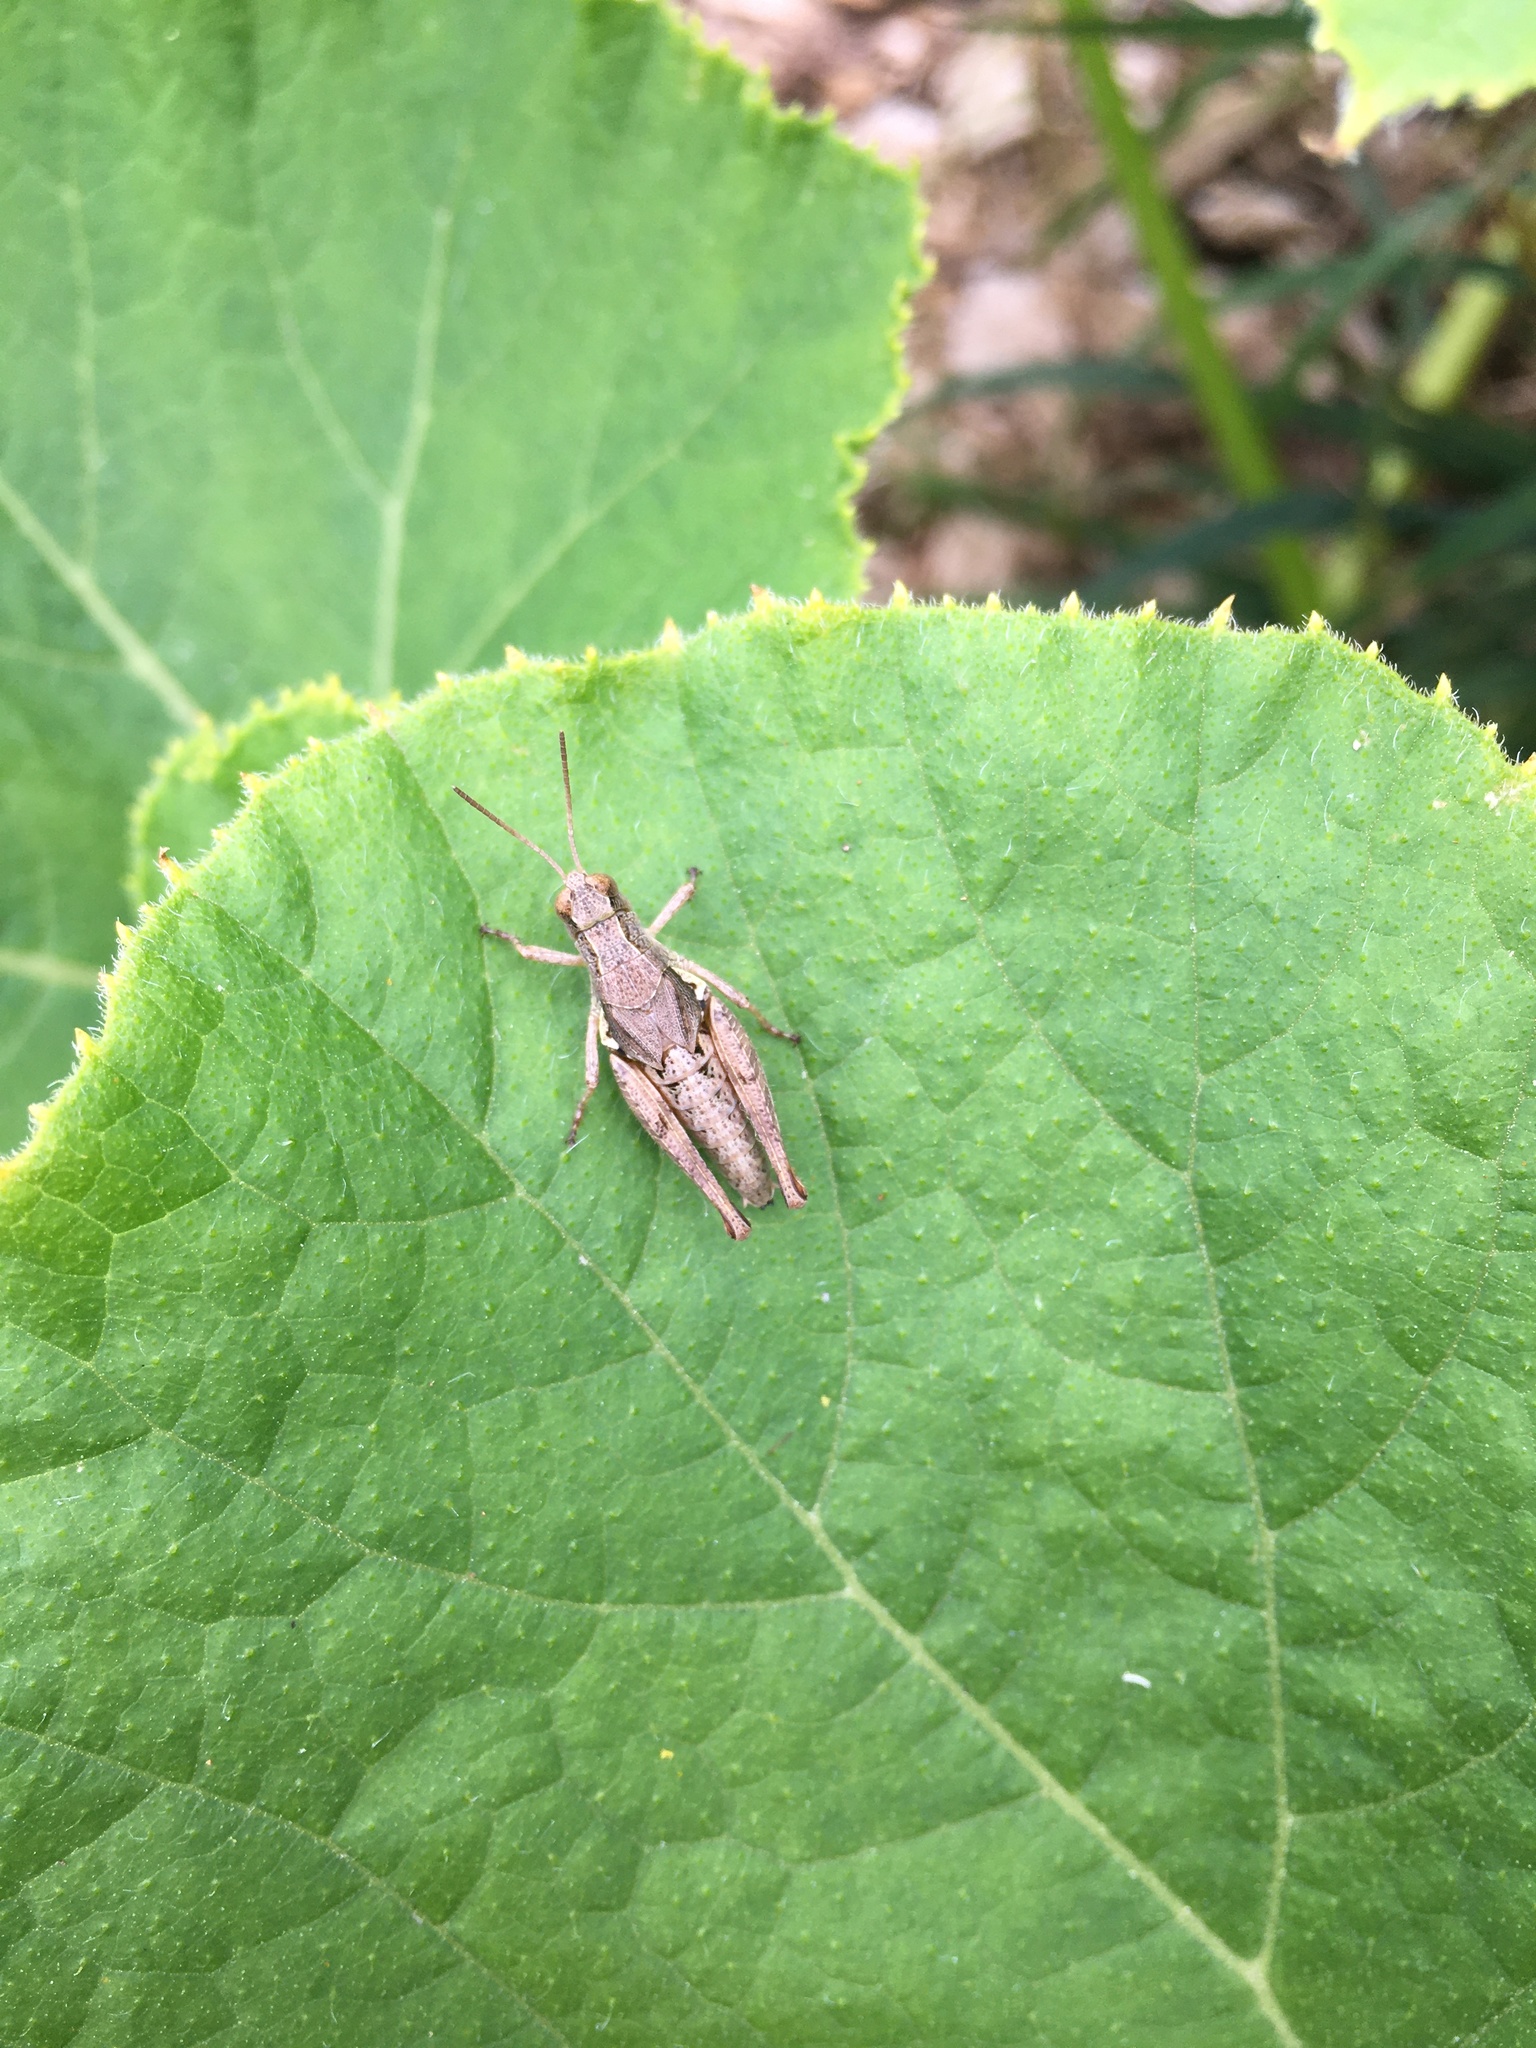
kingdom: Animalia
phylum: Arthropoda
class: Insecta
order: Orthoptera
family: Acrididae
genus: Phaulacridium
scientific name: Phaulacridium marginale
